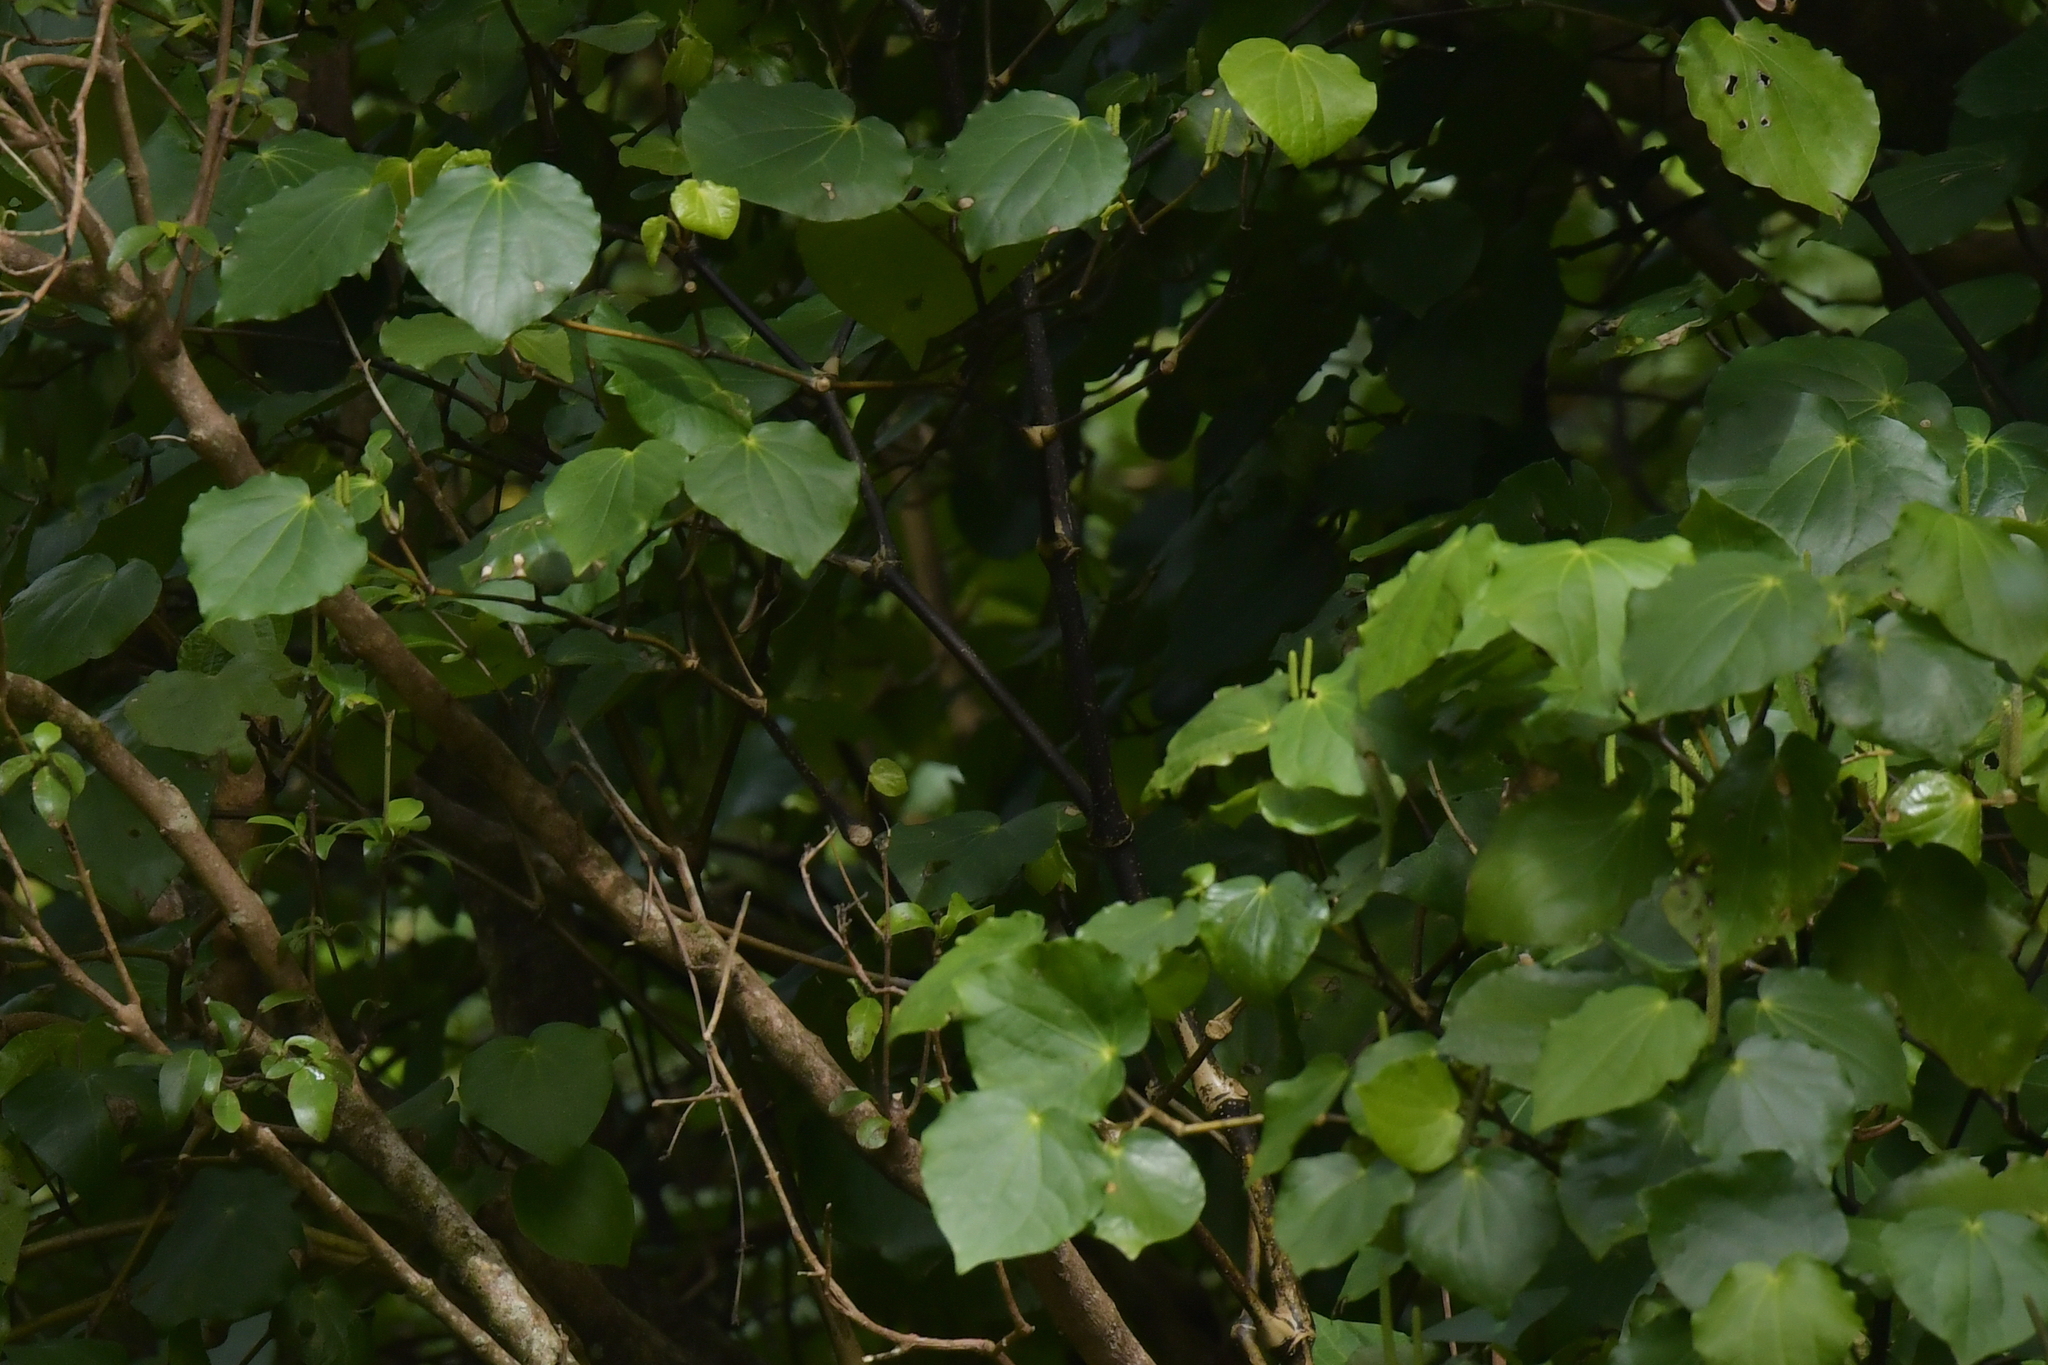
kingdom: Plantae
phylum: Tracheophyta
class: Magnoliopsida
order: Piperales
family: Piperaceae
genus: Macropiper
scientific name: Macropiper excelsum
